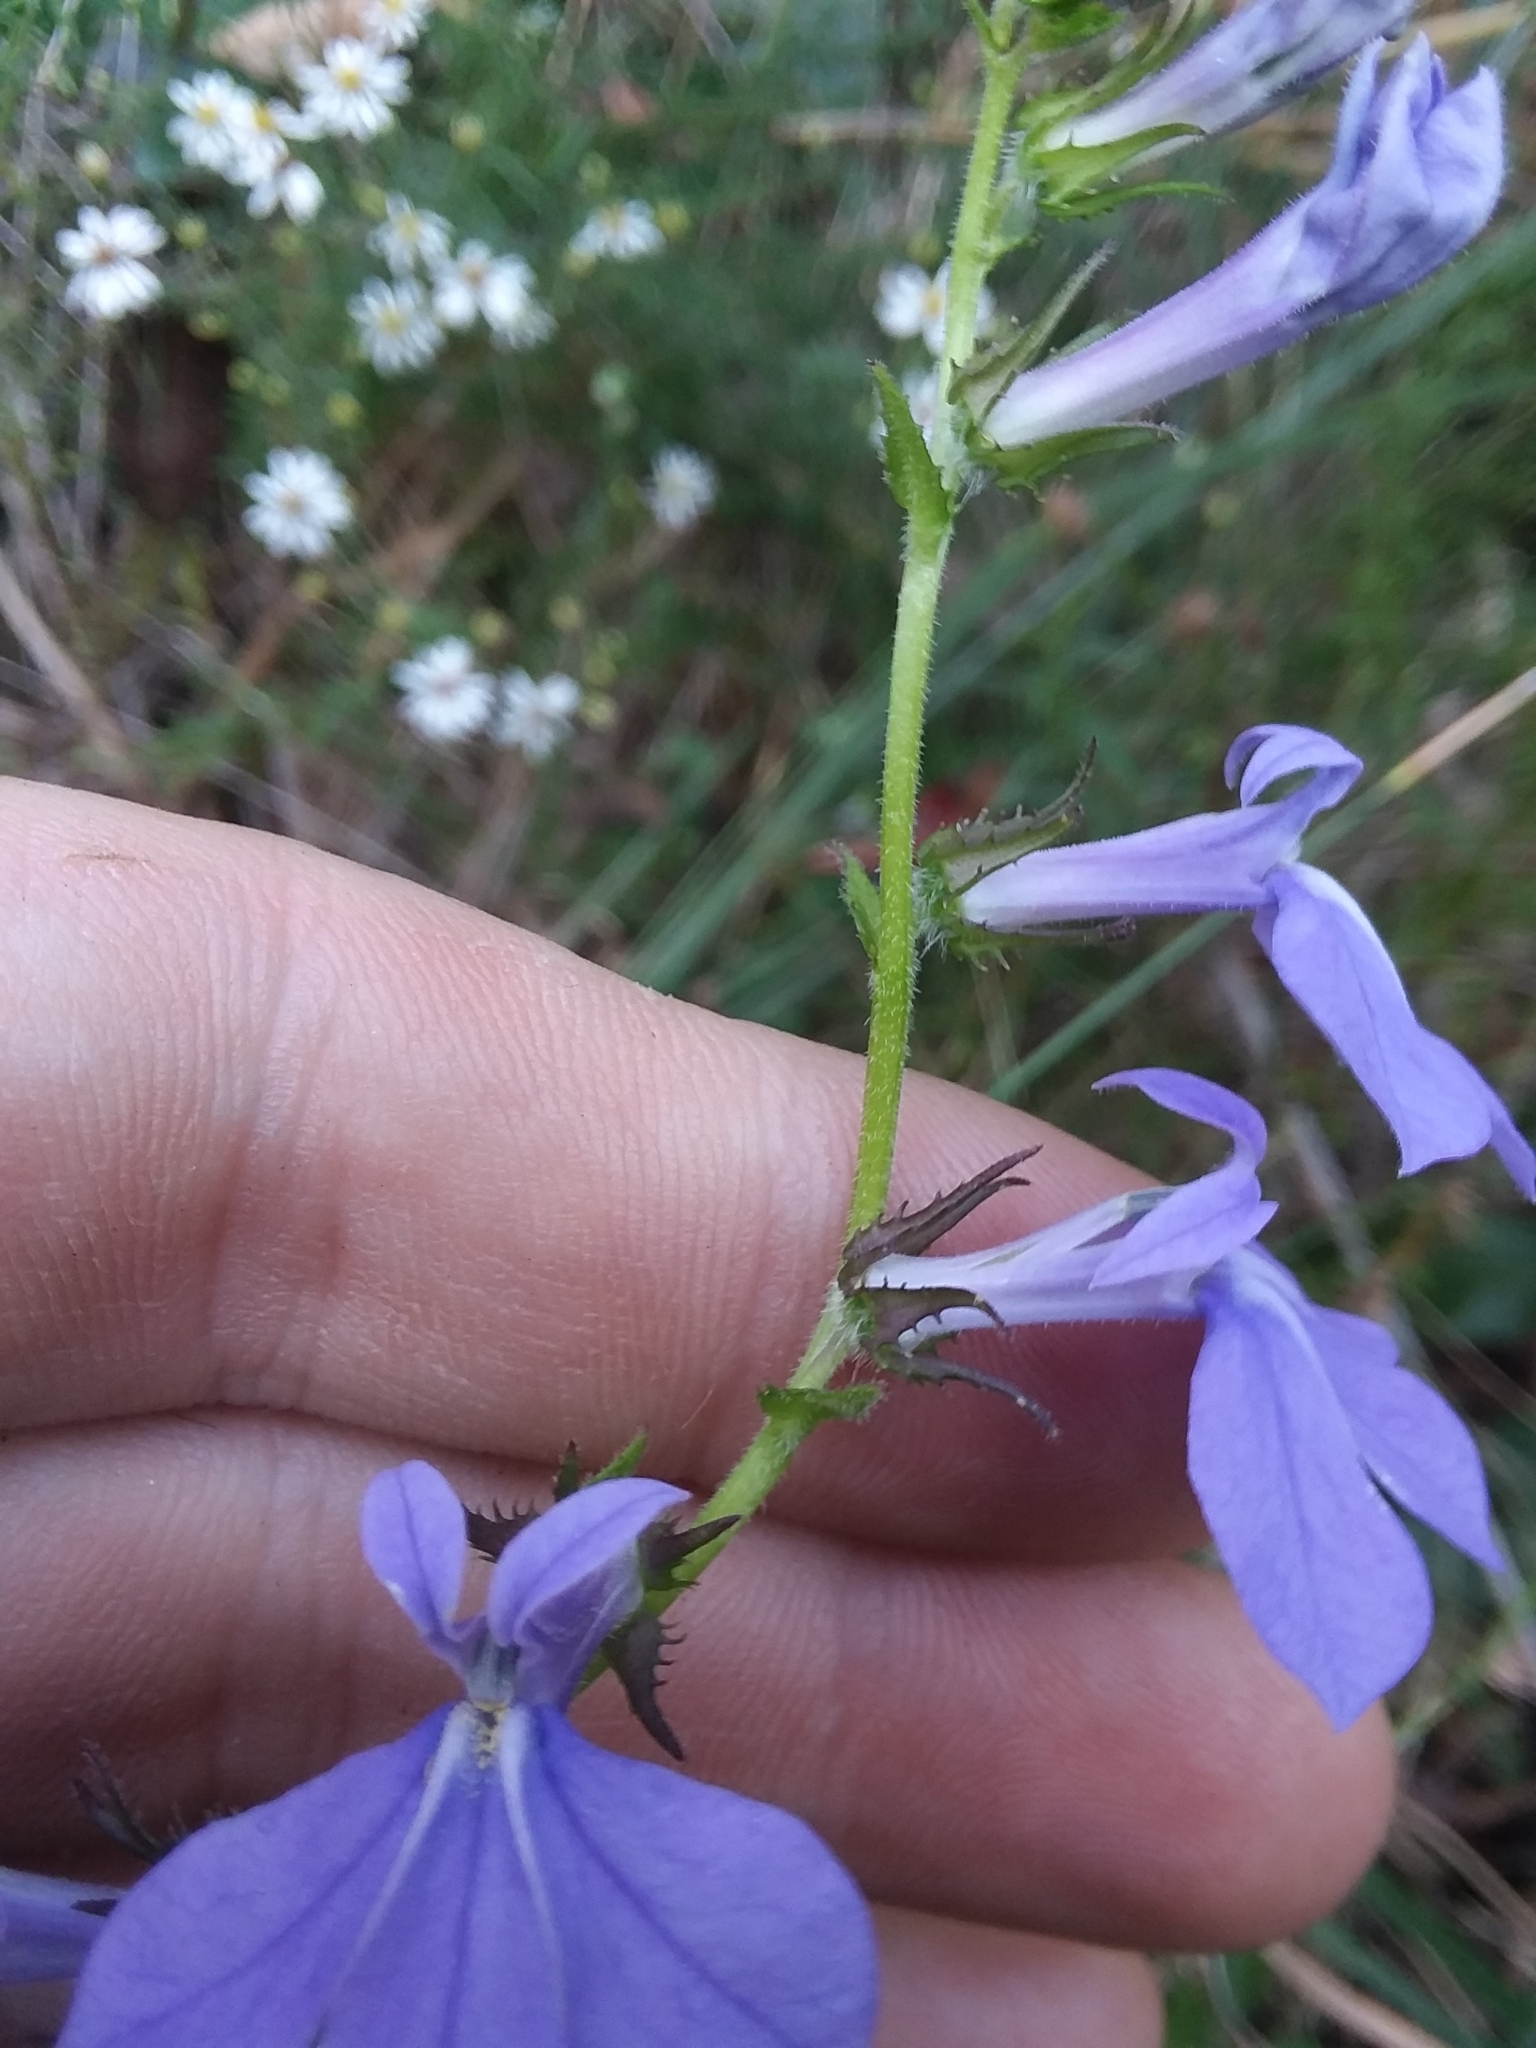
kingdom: Plantae
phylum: Tracheophyta
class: Magnoliopsida
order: Asterales
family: Campanulaceae
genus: Lobelia
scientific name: Lobelia rogersii
